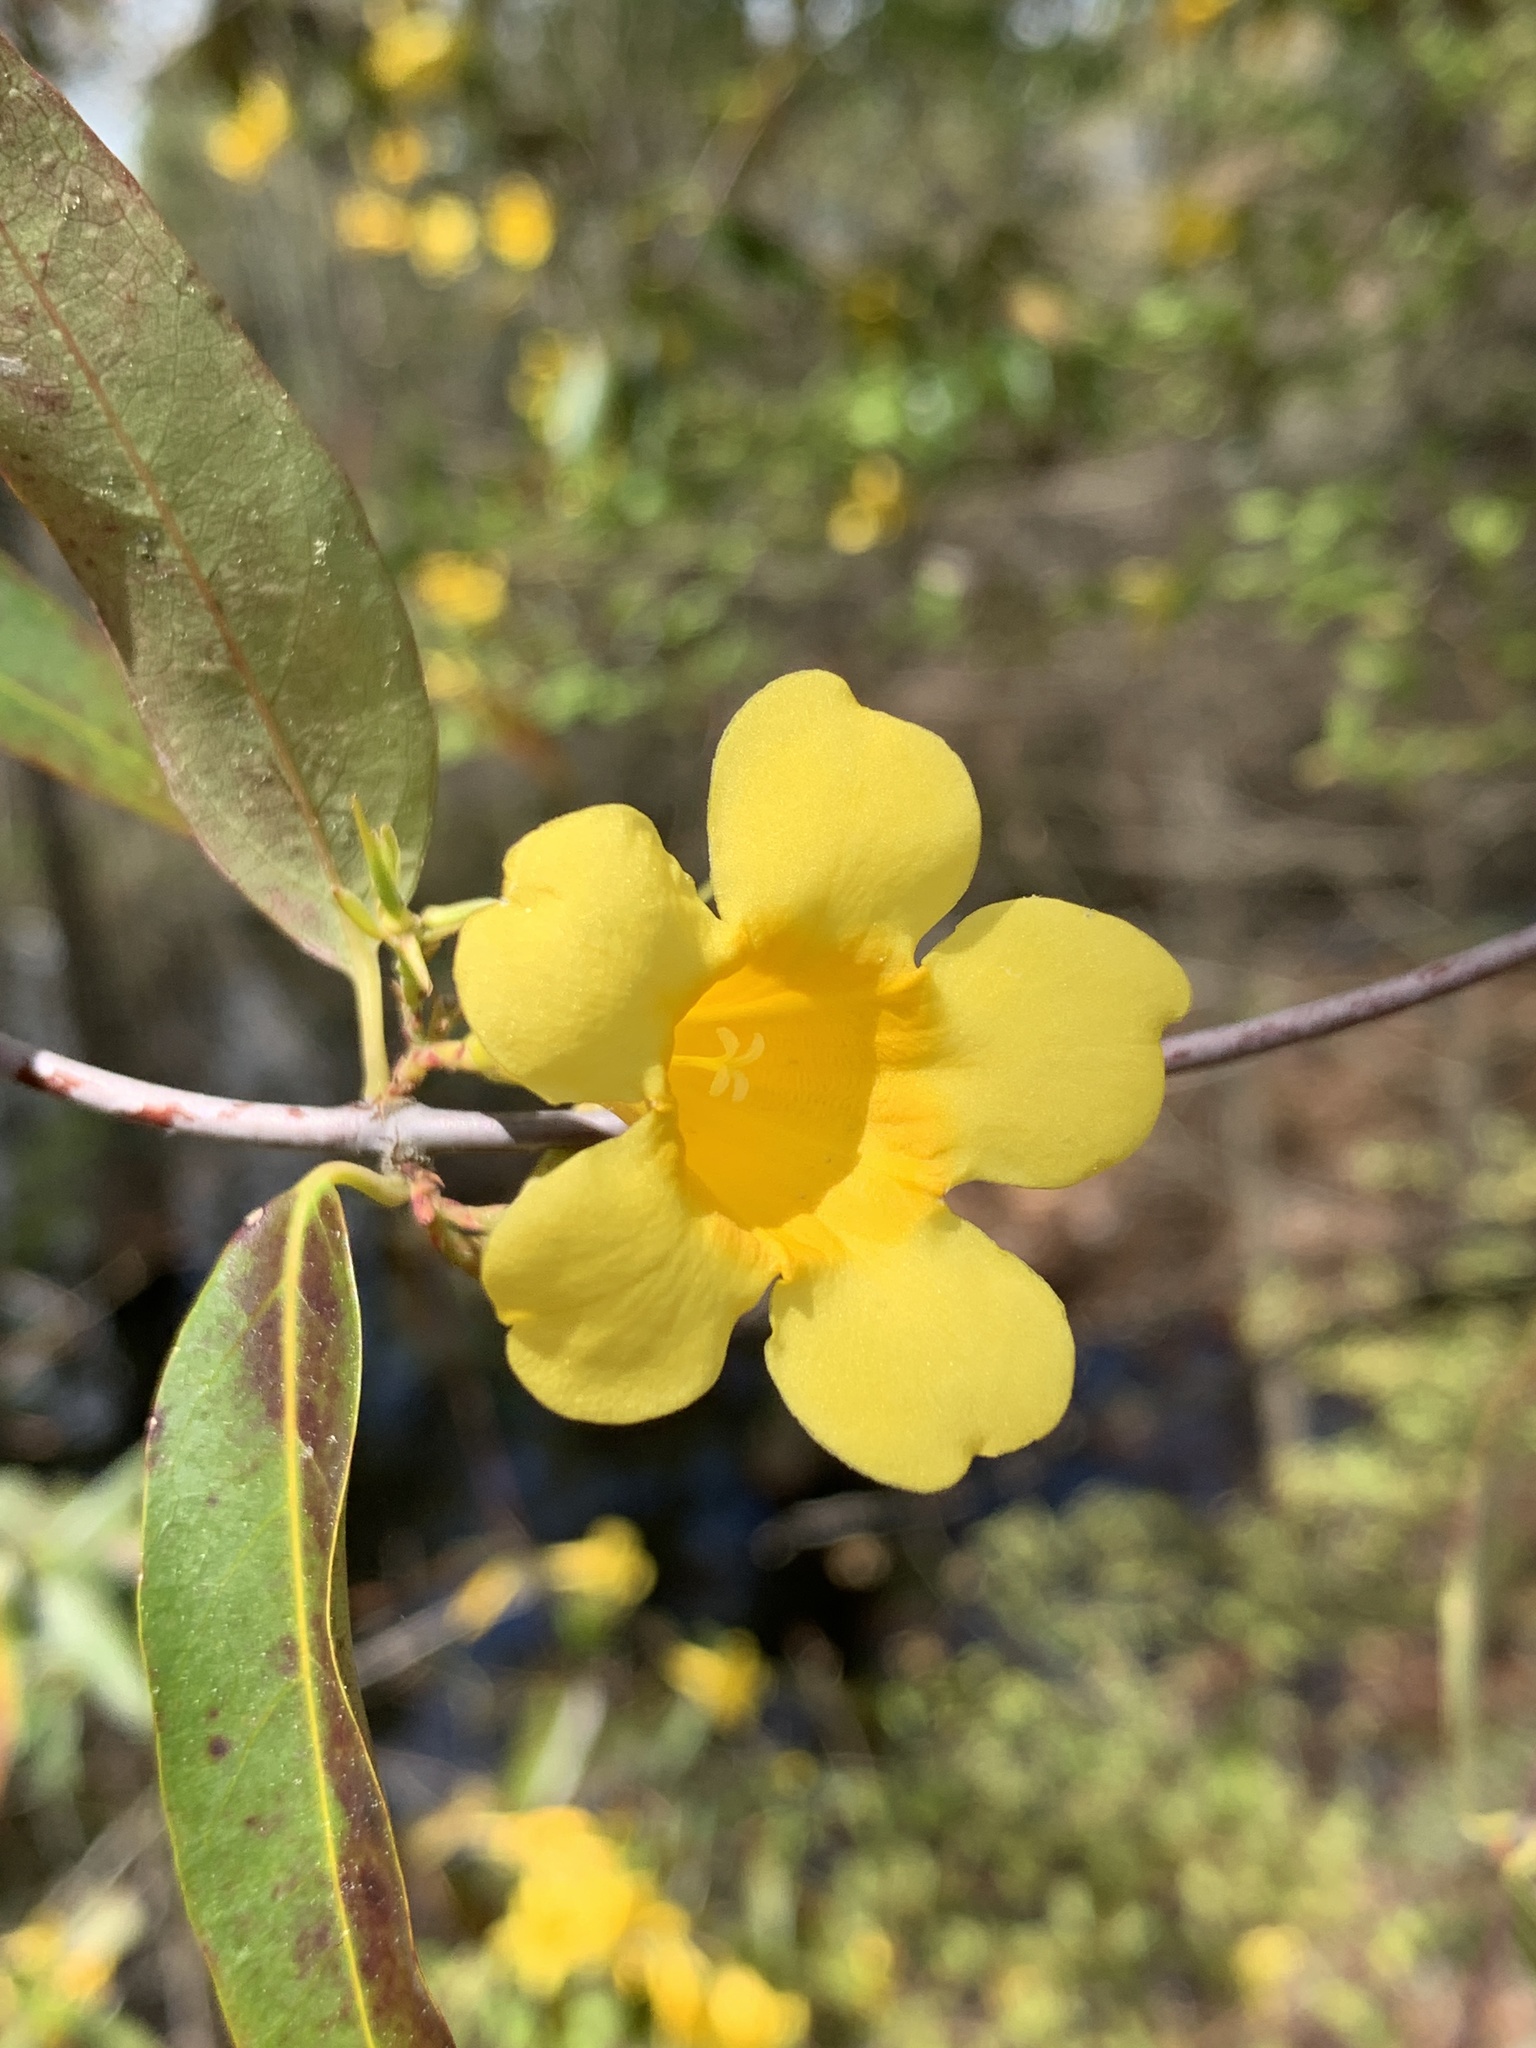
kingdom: Plantae
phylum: Tracheophyta
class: Magnoliopsida
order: Gentianales
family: Gelsemiaceae
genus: Gelsemium
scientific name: Gelsemium sempervirens
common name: Carolina-jasmine
